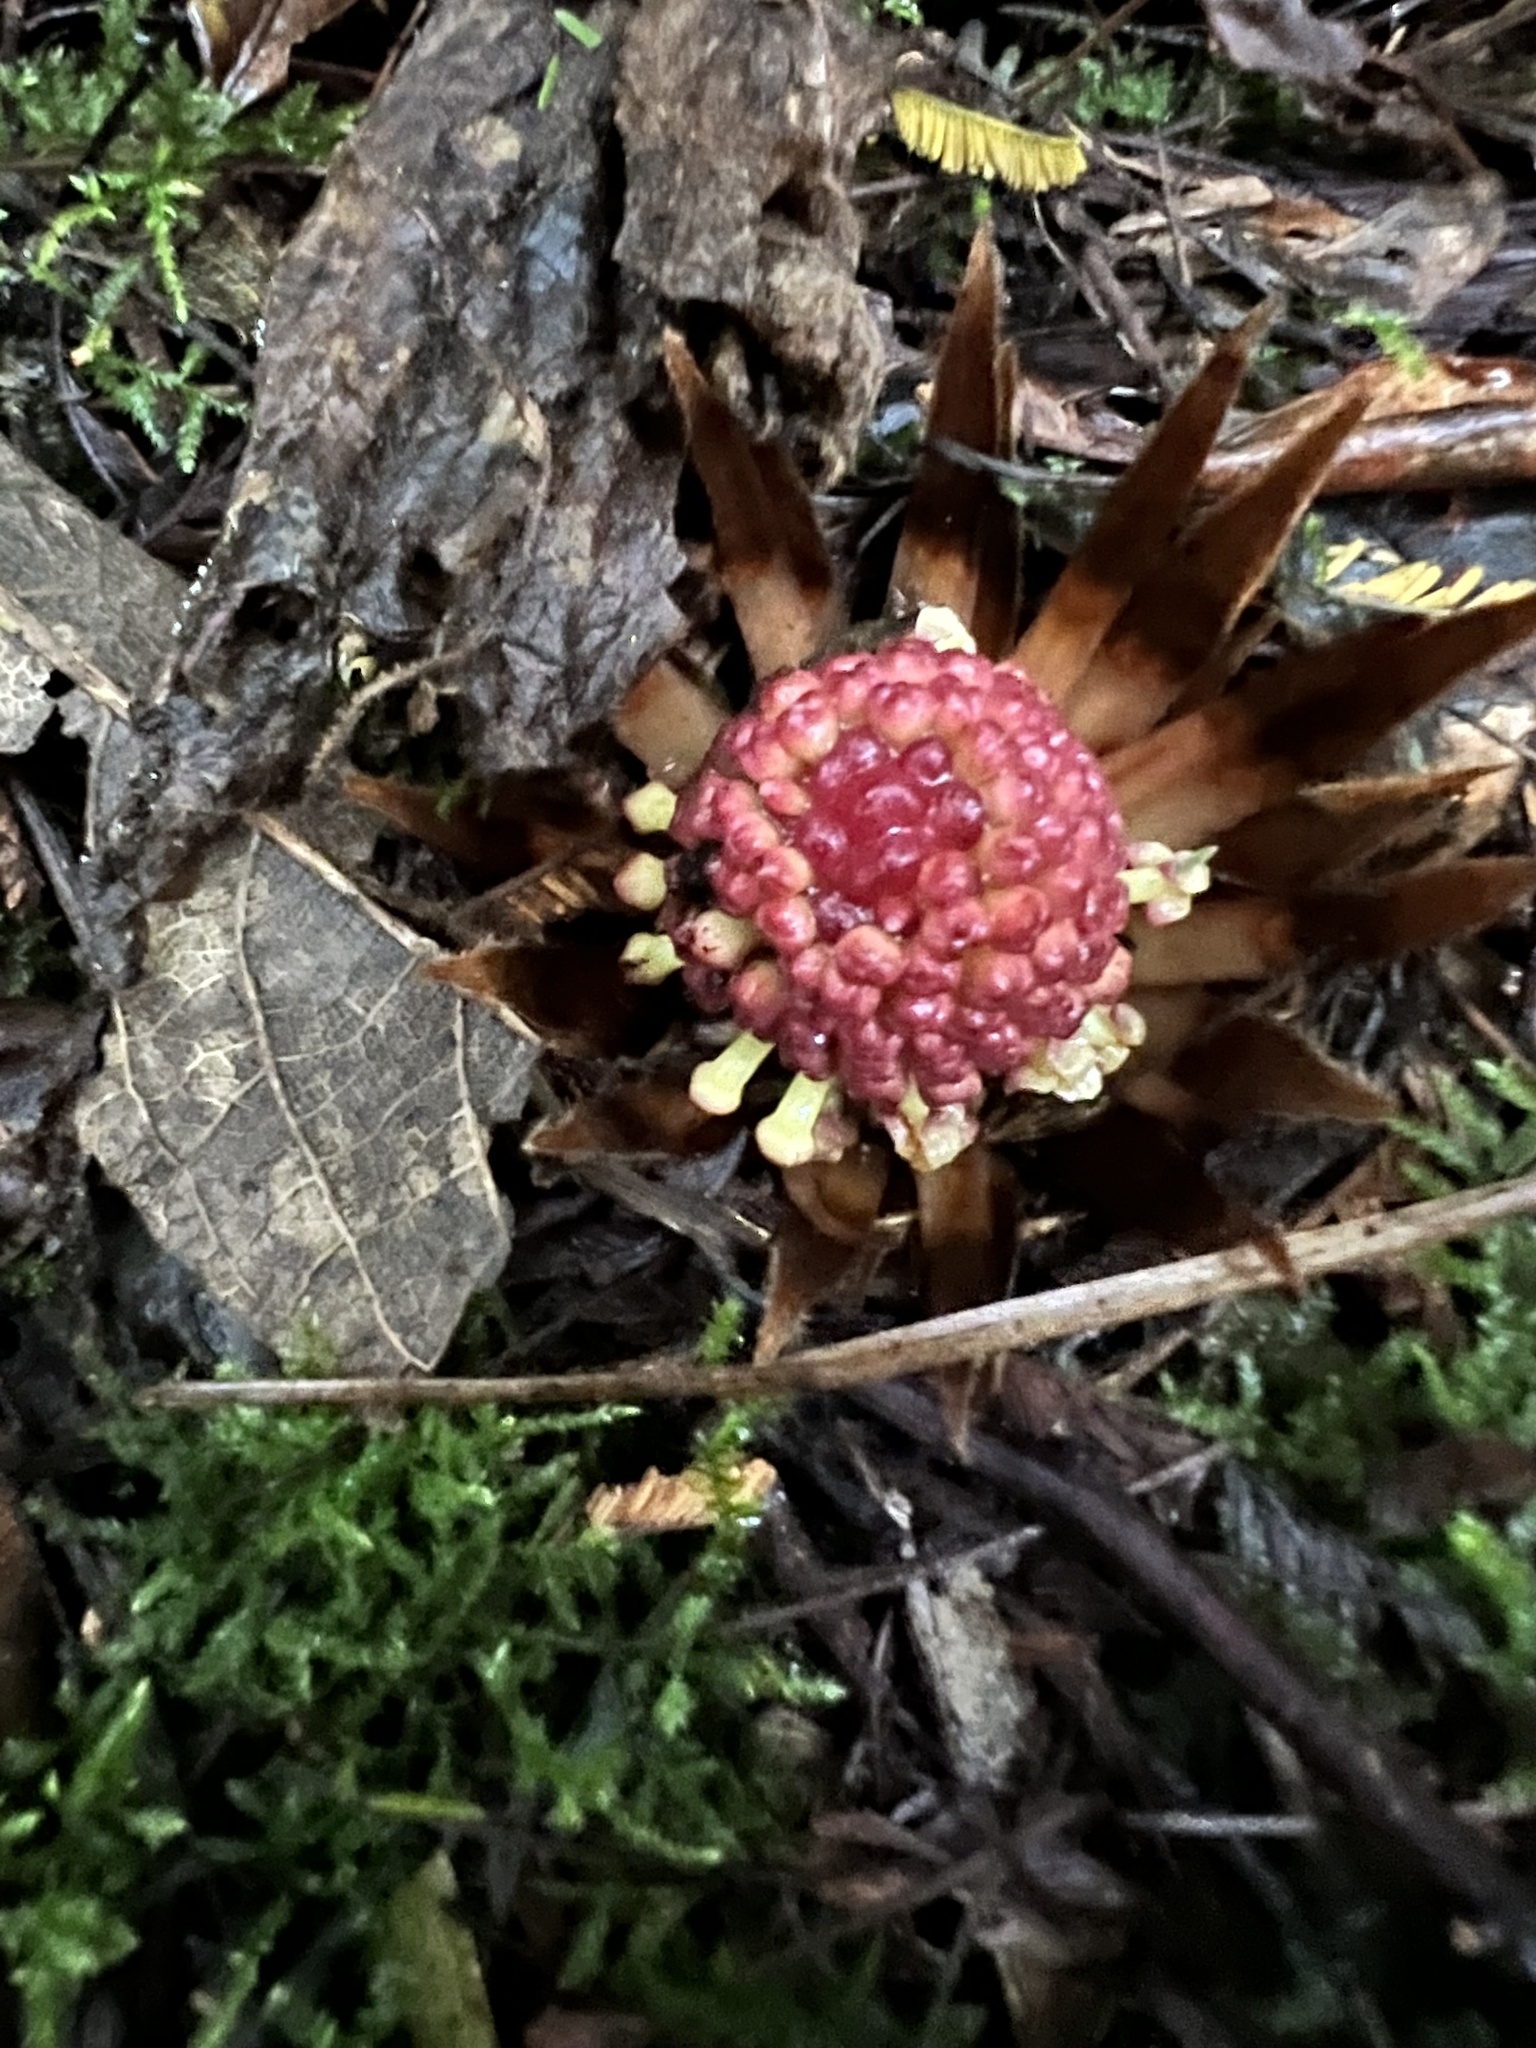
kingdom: Plantae
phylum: Tracheophyta
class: Magnoliopsida
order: Santalales
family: Balanophoraceae
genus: Langsdorffia
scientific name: Langsdorffia hypogaea
